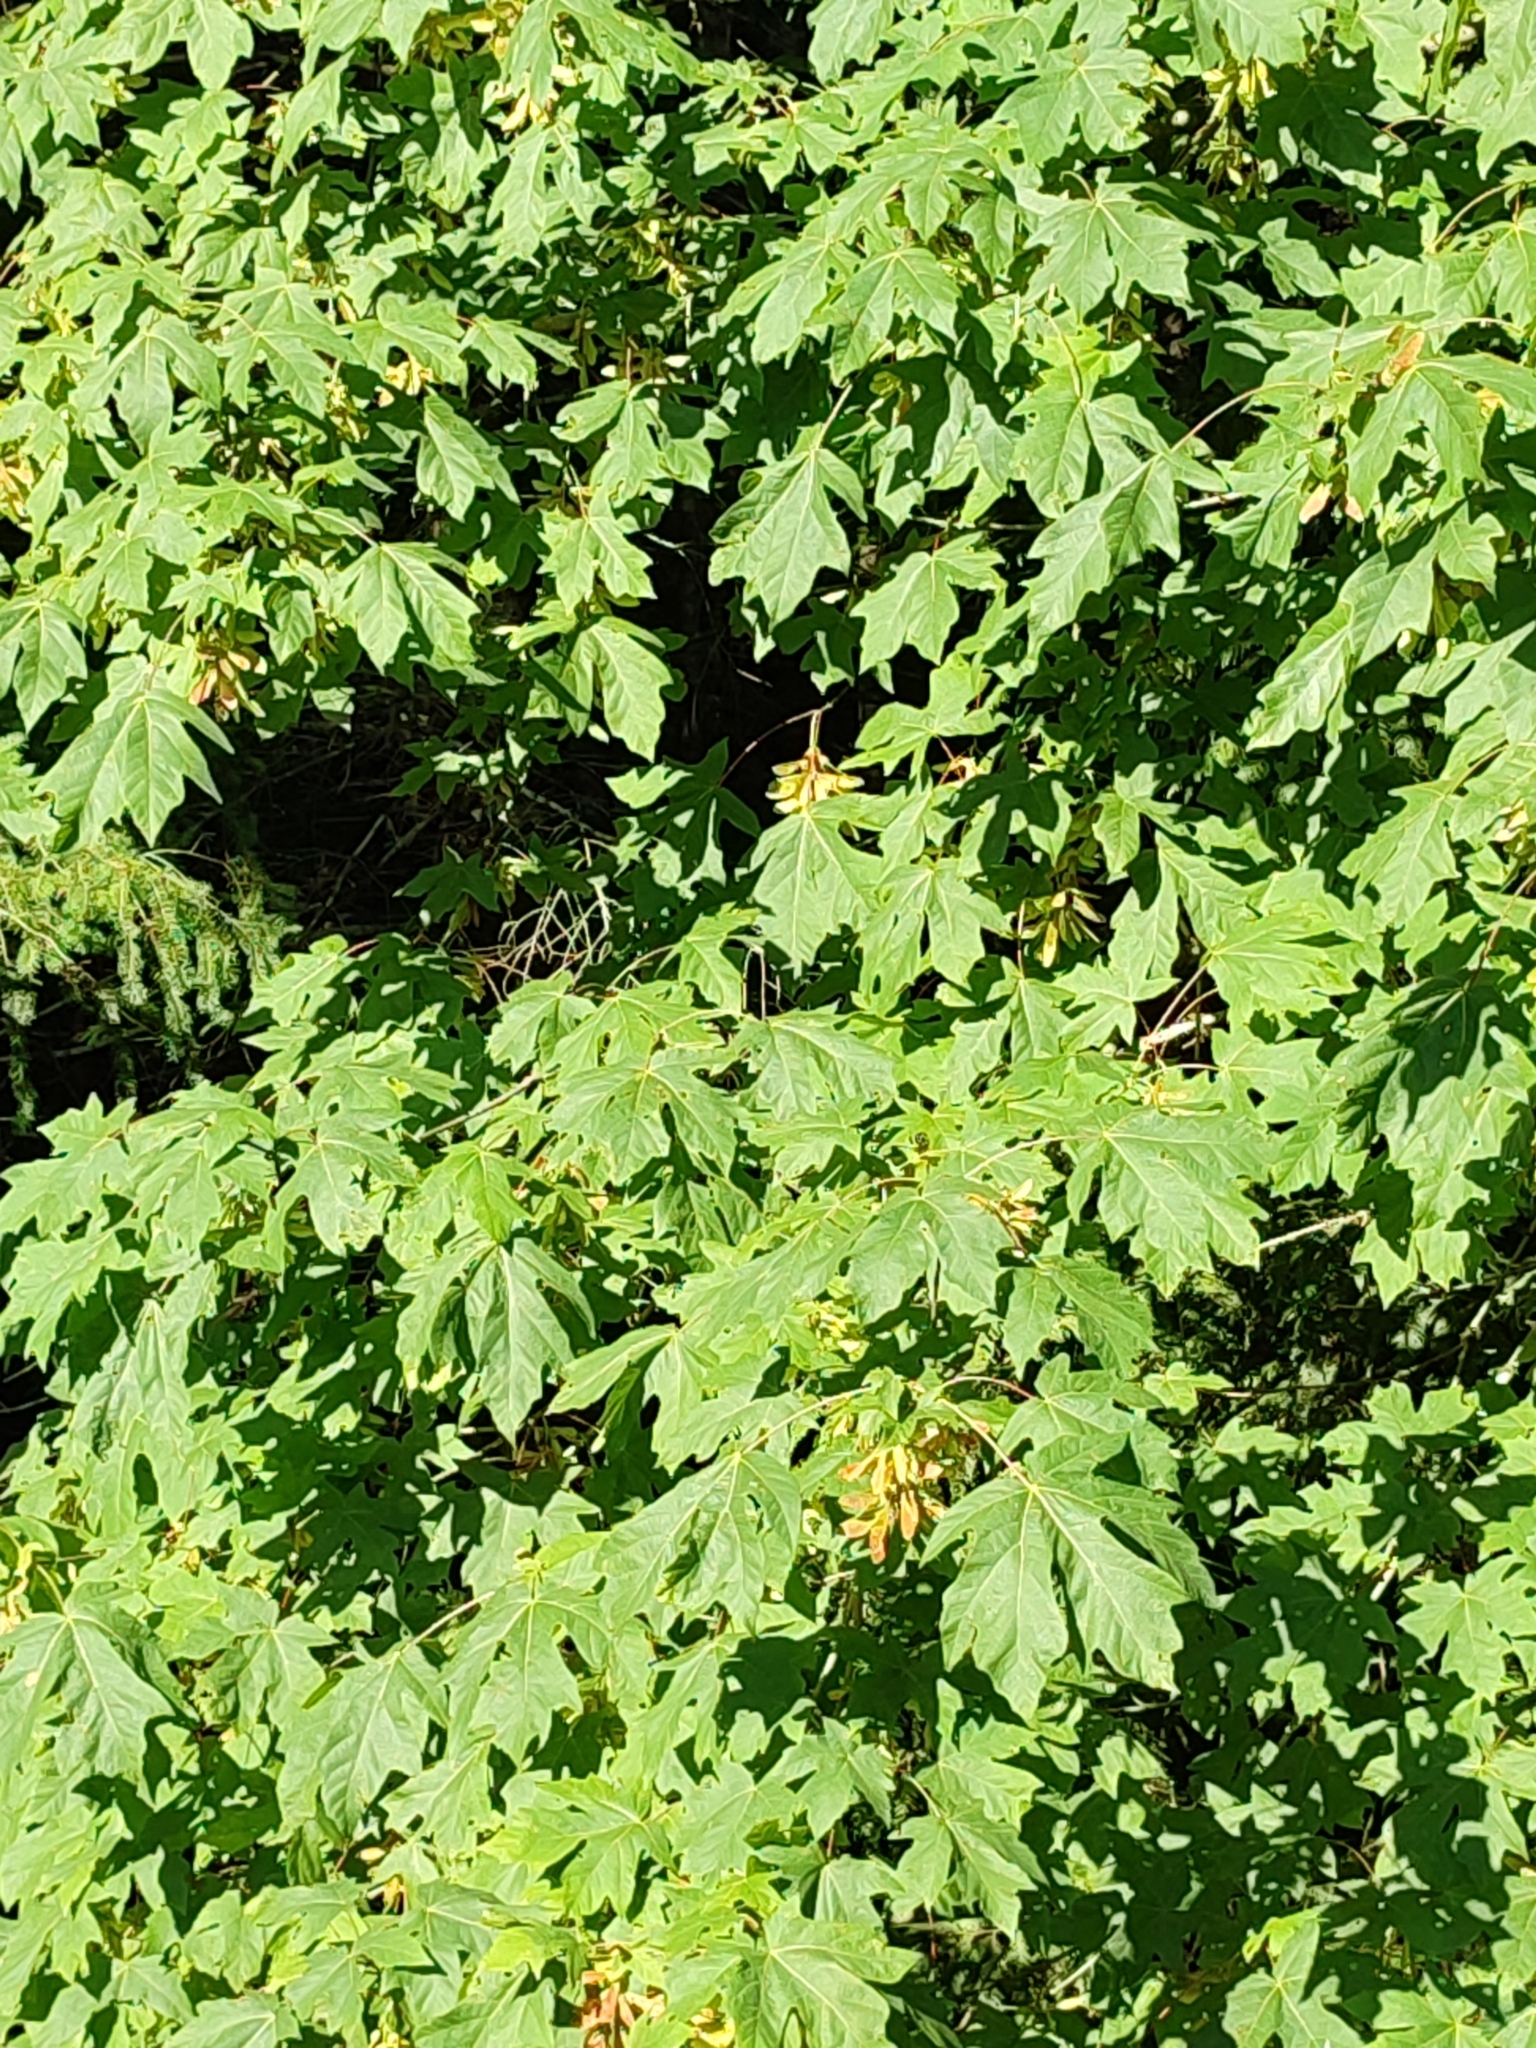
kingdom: Plantae
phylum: Tracheophyta
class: Magnoliopsida
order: Sapindales
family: Sapindaceae
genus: Acer
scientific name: Acer macrophyllum
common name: Oregon maple
